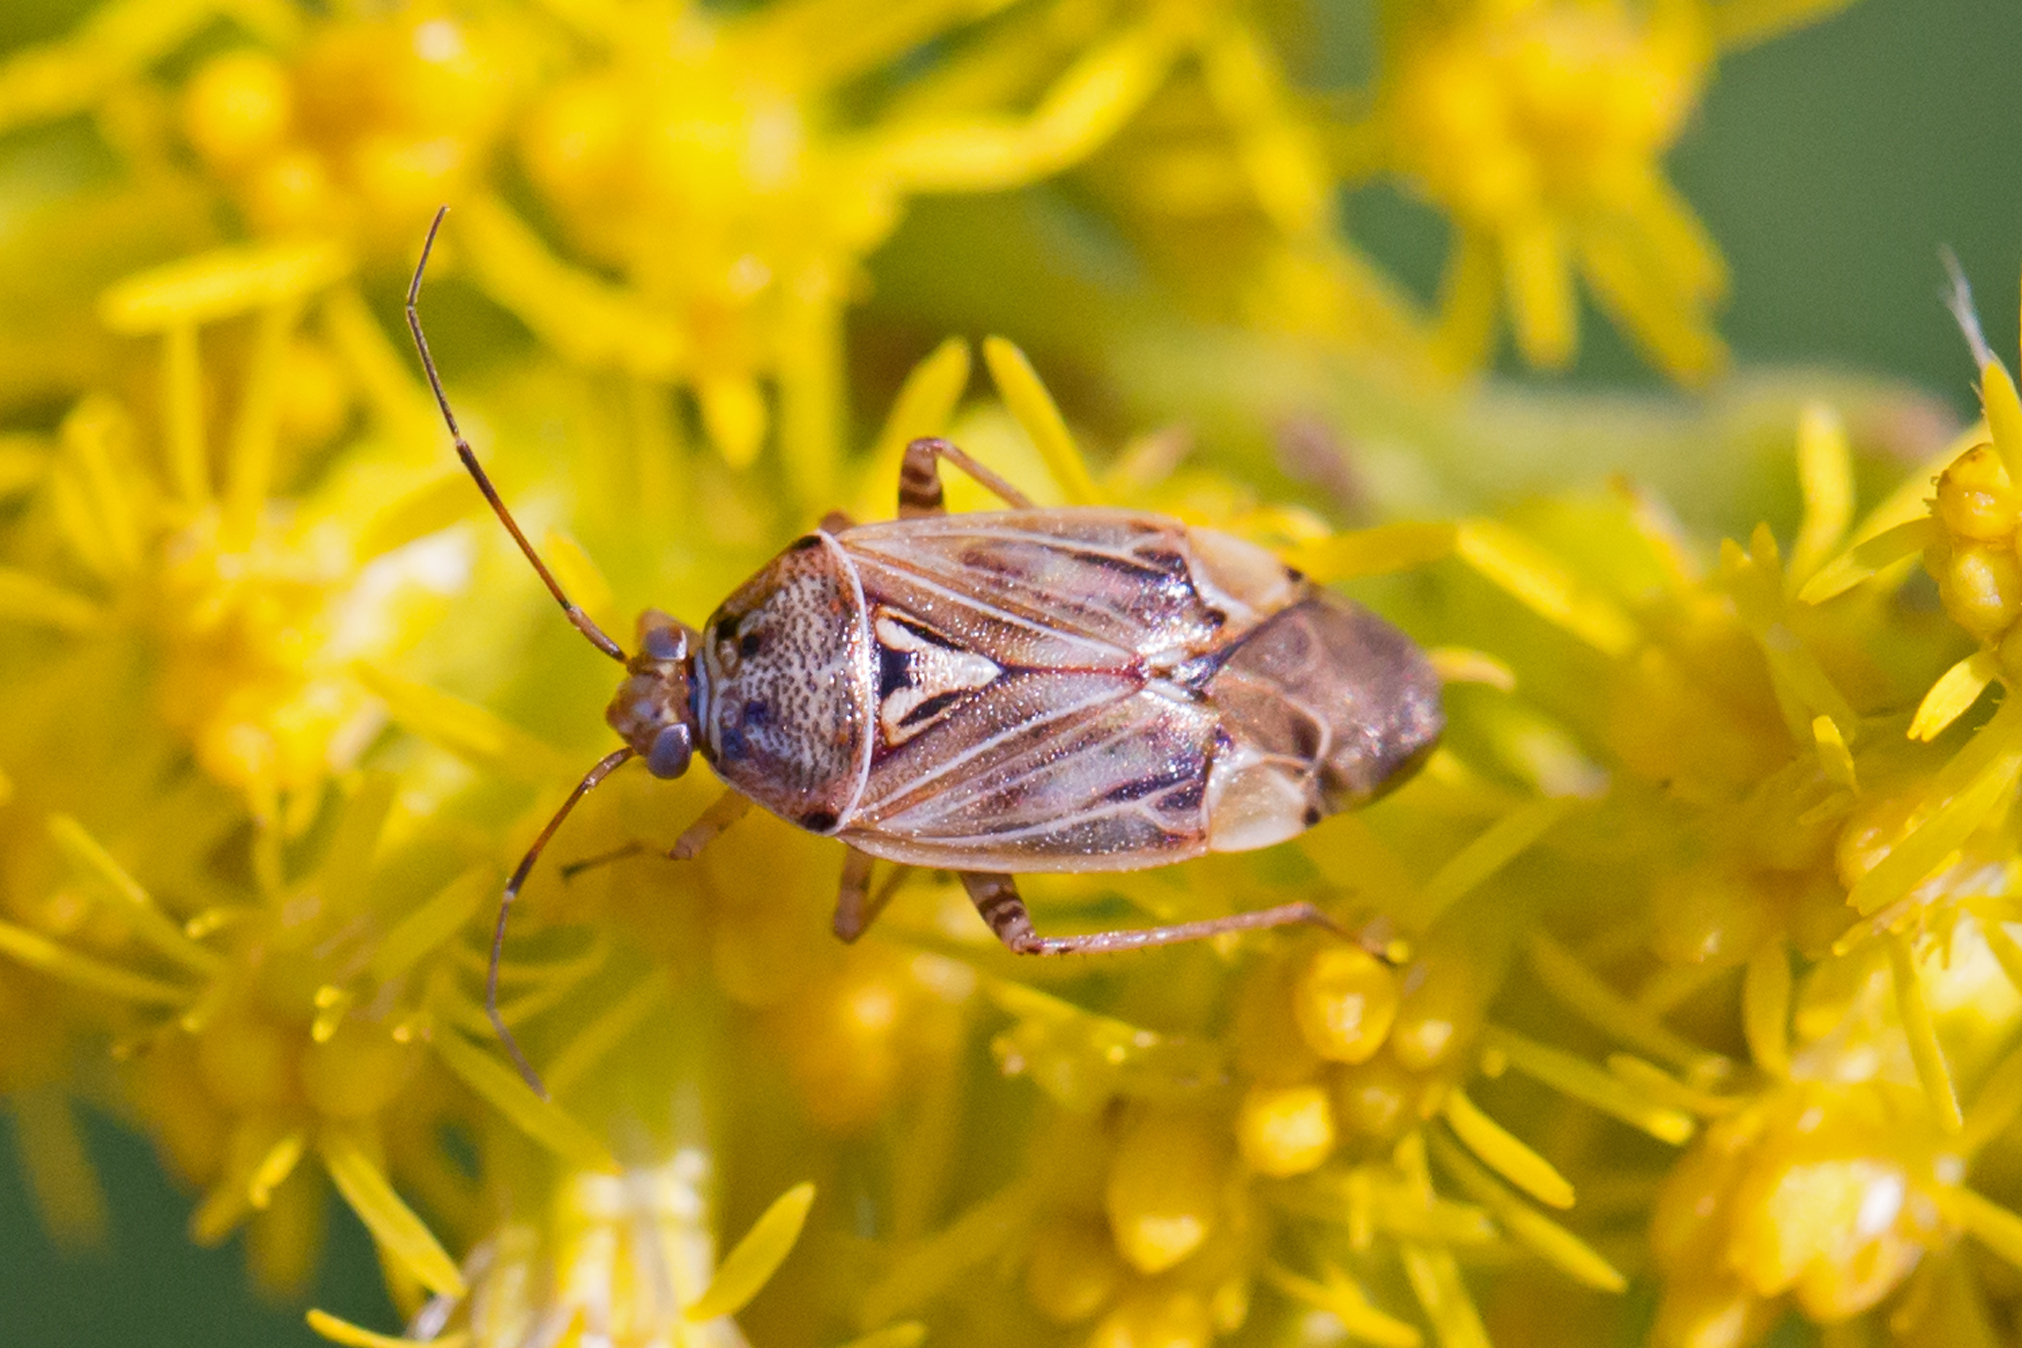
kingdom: Animalia
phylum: Arthropoda
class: Insecta
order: Hemiptera
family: Miridae
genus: Lygus
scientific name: Lygus lineolaris
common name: North american tarnished plant bug
